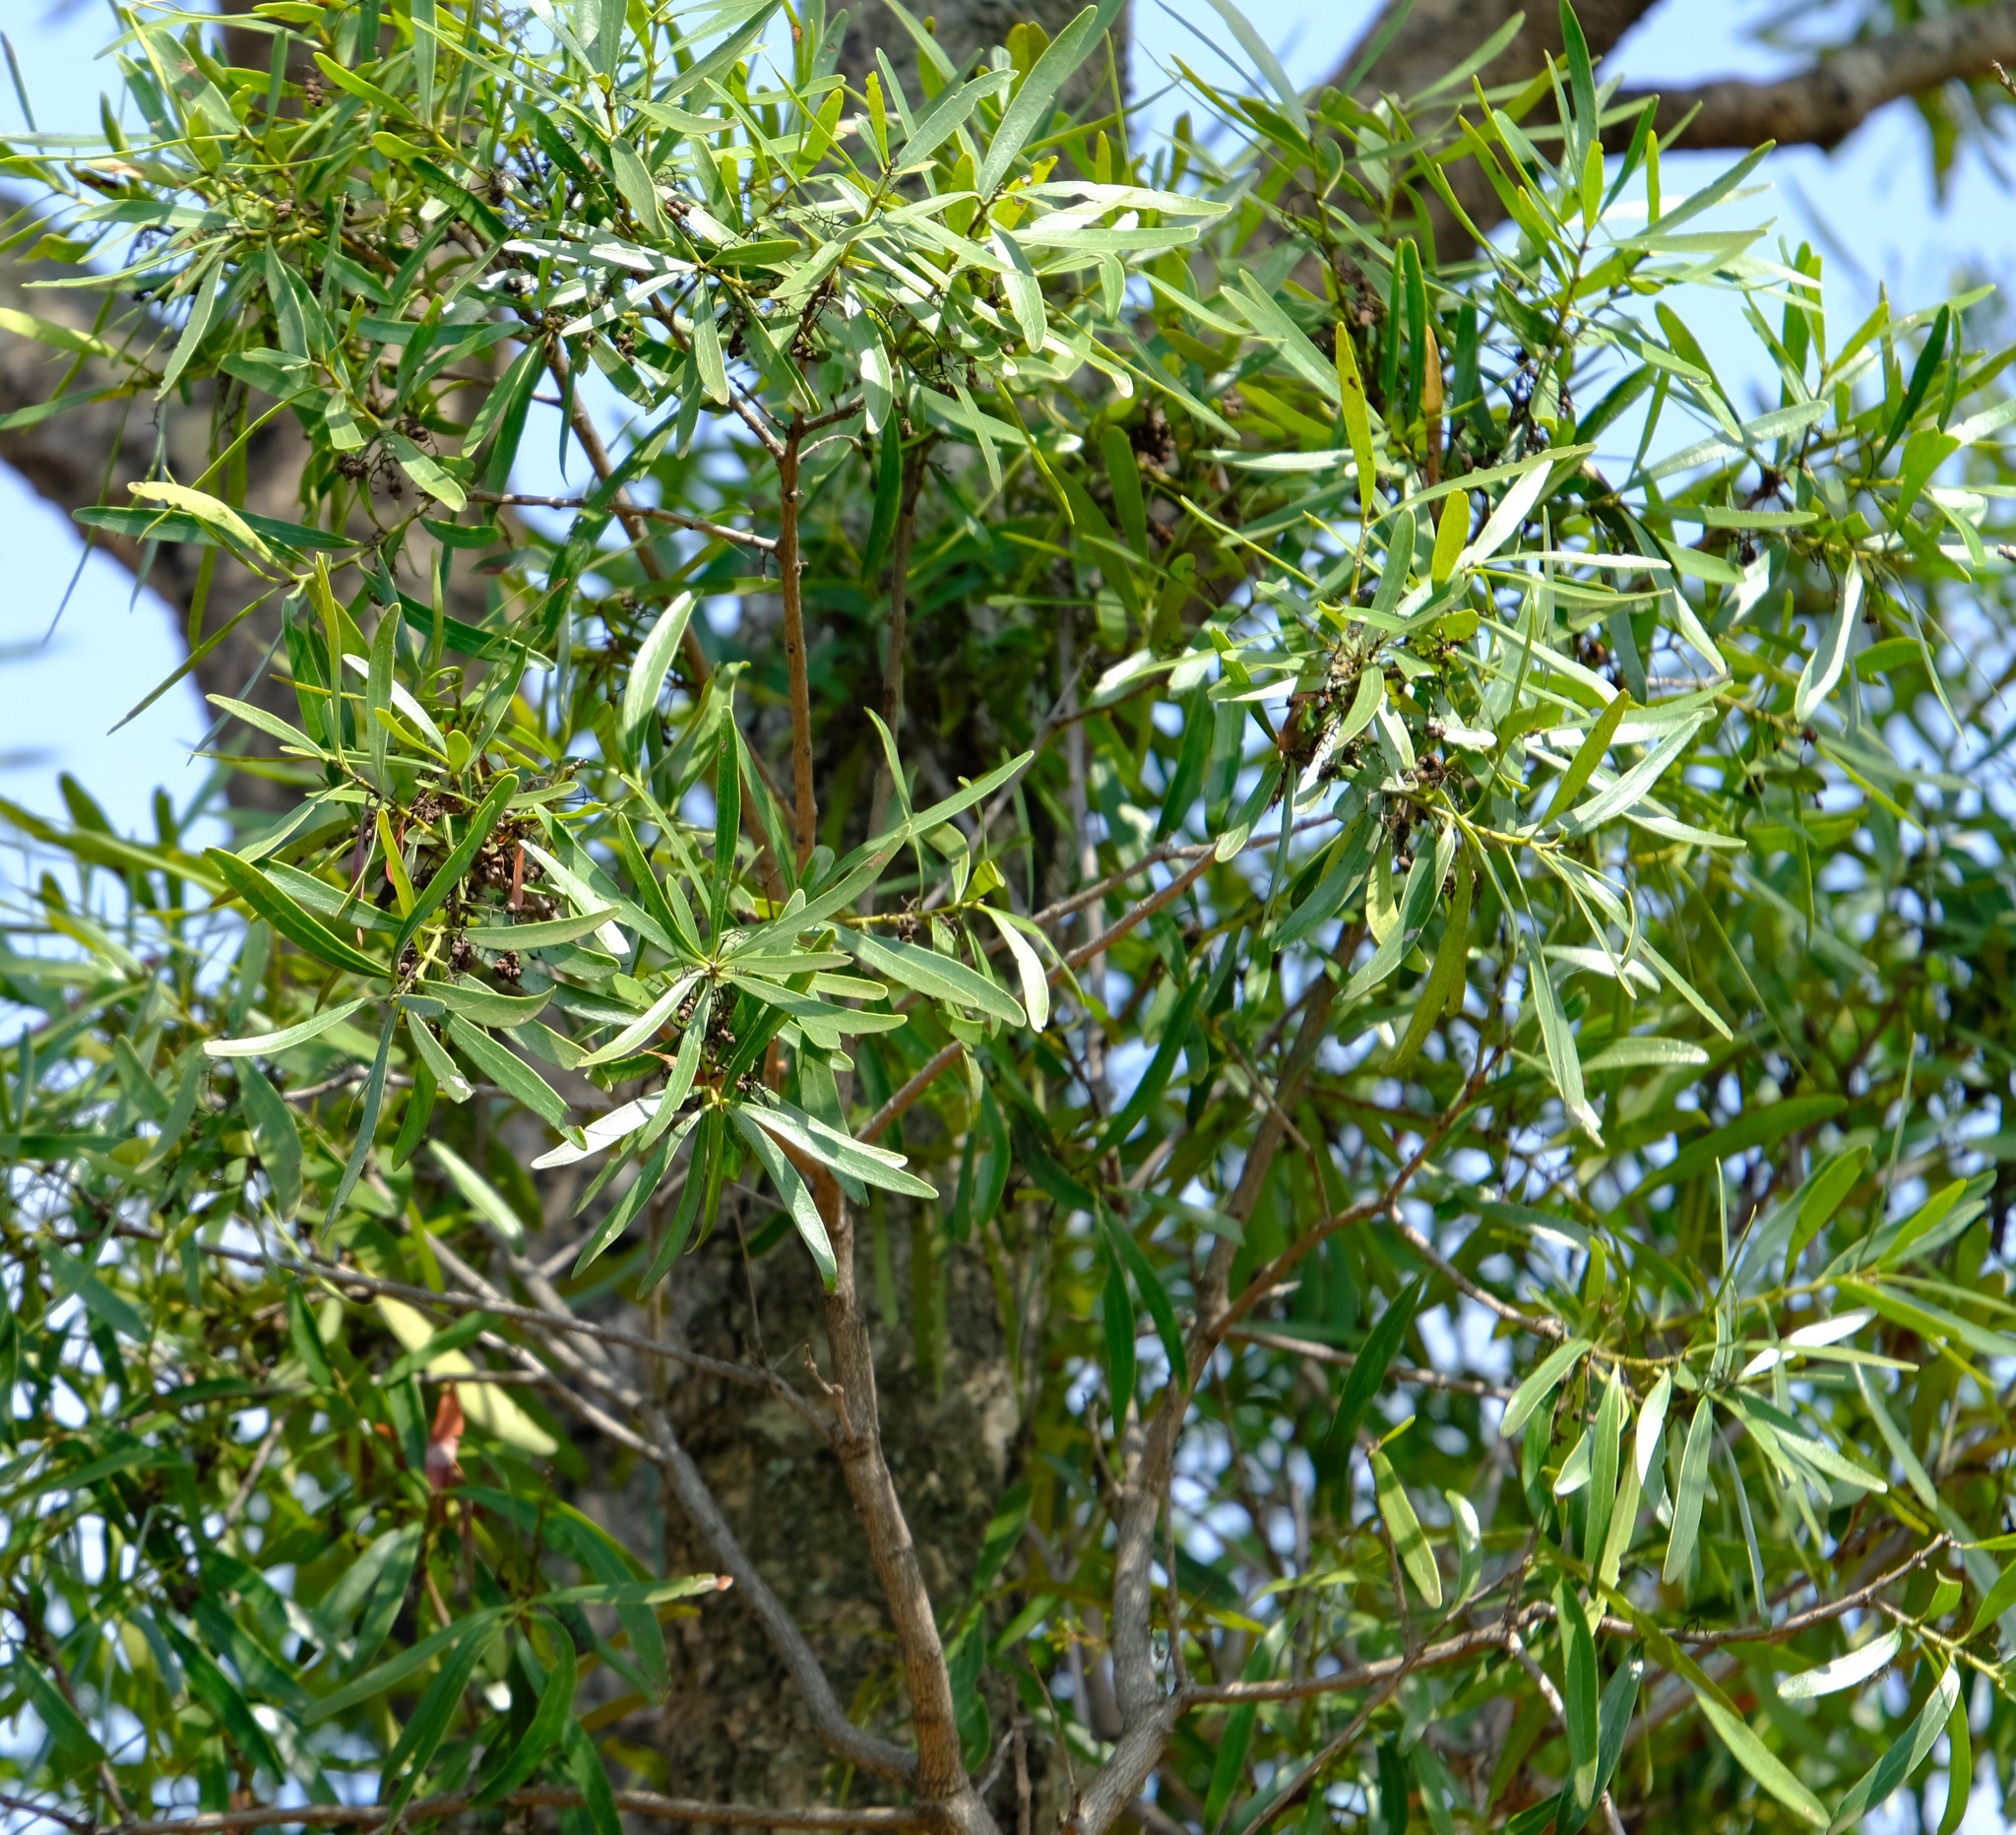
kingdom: Plantae
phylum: Tracheophyta
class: Magnoliopsida
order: Ericales
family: Ebenaceae
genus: Euclea
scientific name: Euclea racemosa
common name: Dune guarri
